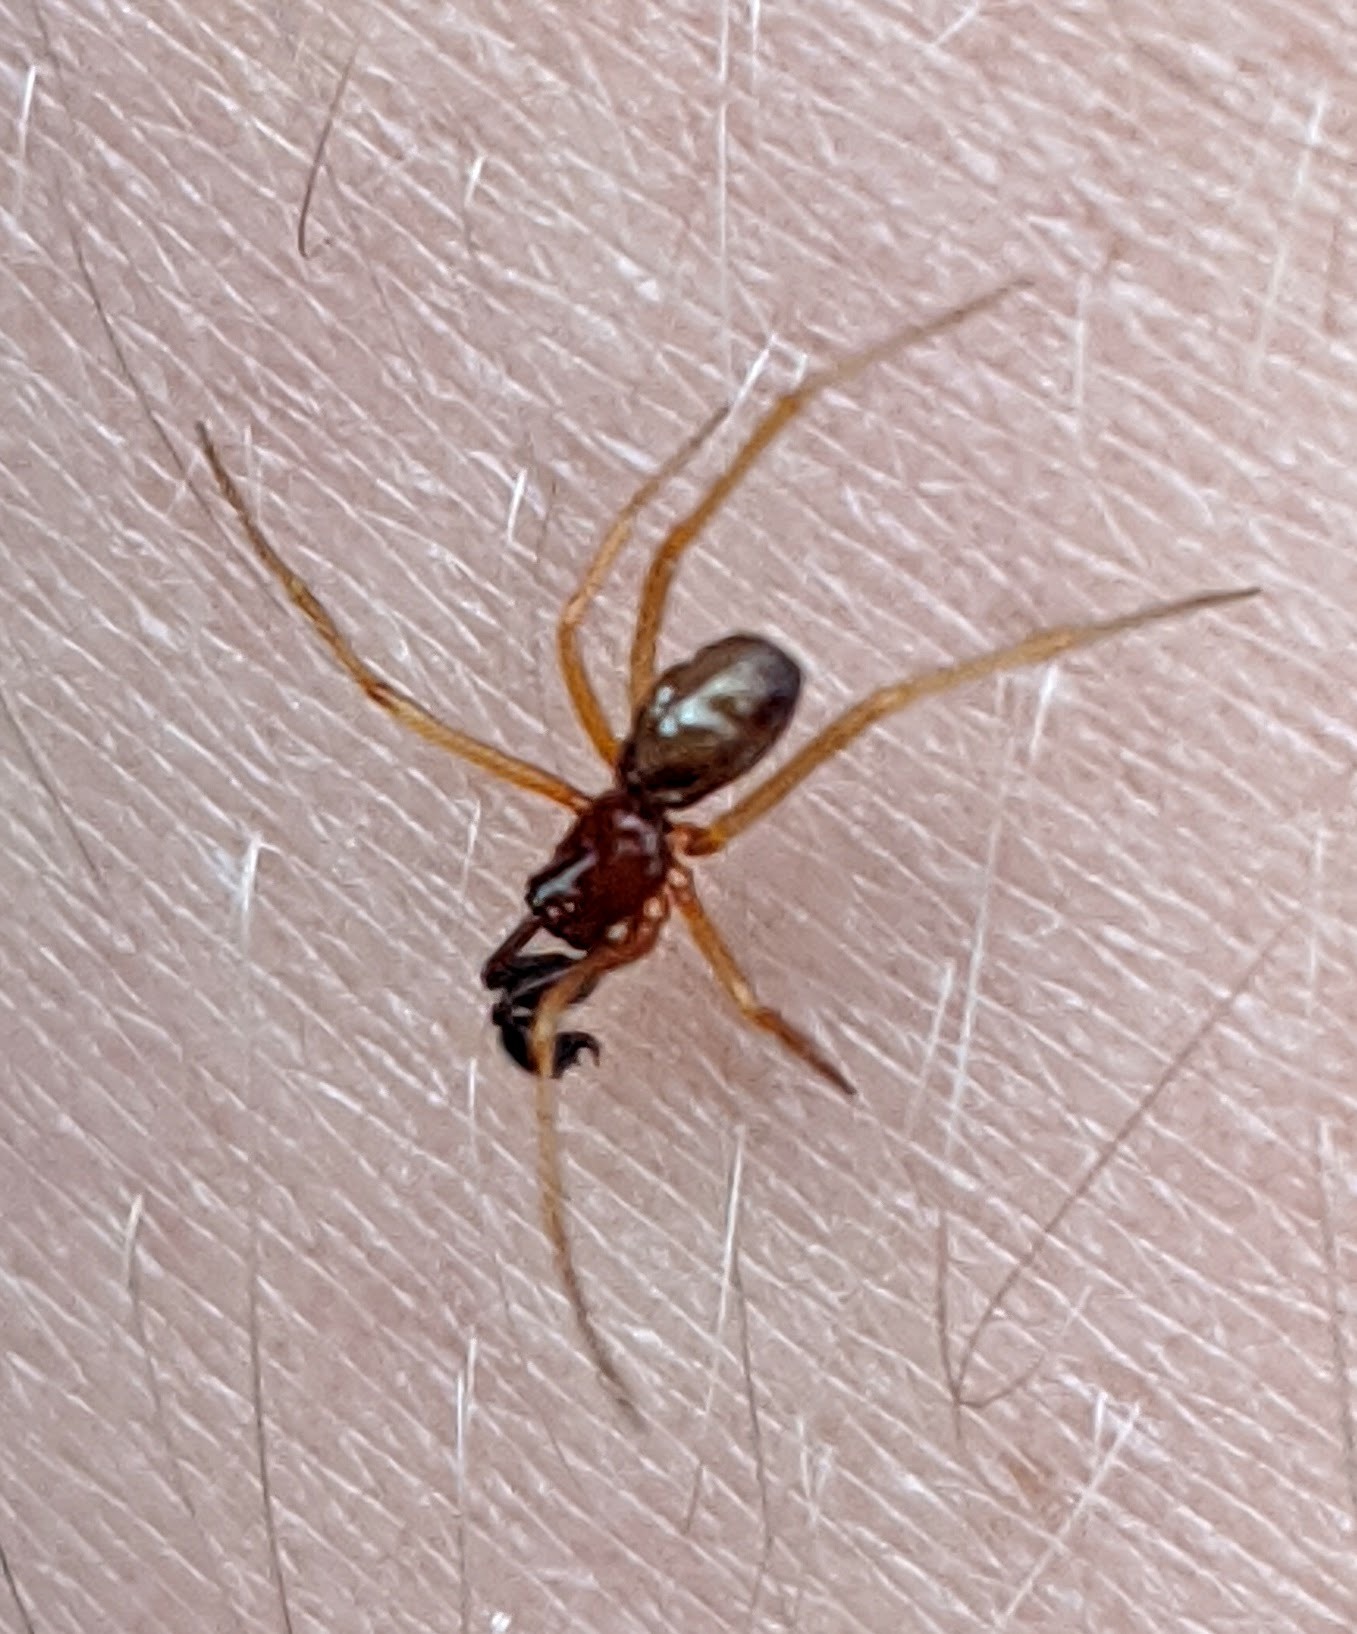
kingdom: Animalia
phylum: Arthropoda
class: Arachnida
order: Araneae
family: Theridiidae
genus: Neottiura
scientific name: Neottiura bimaculata
